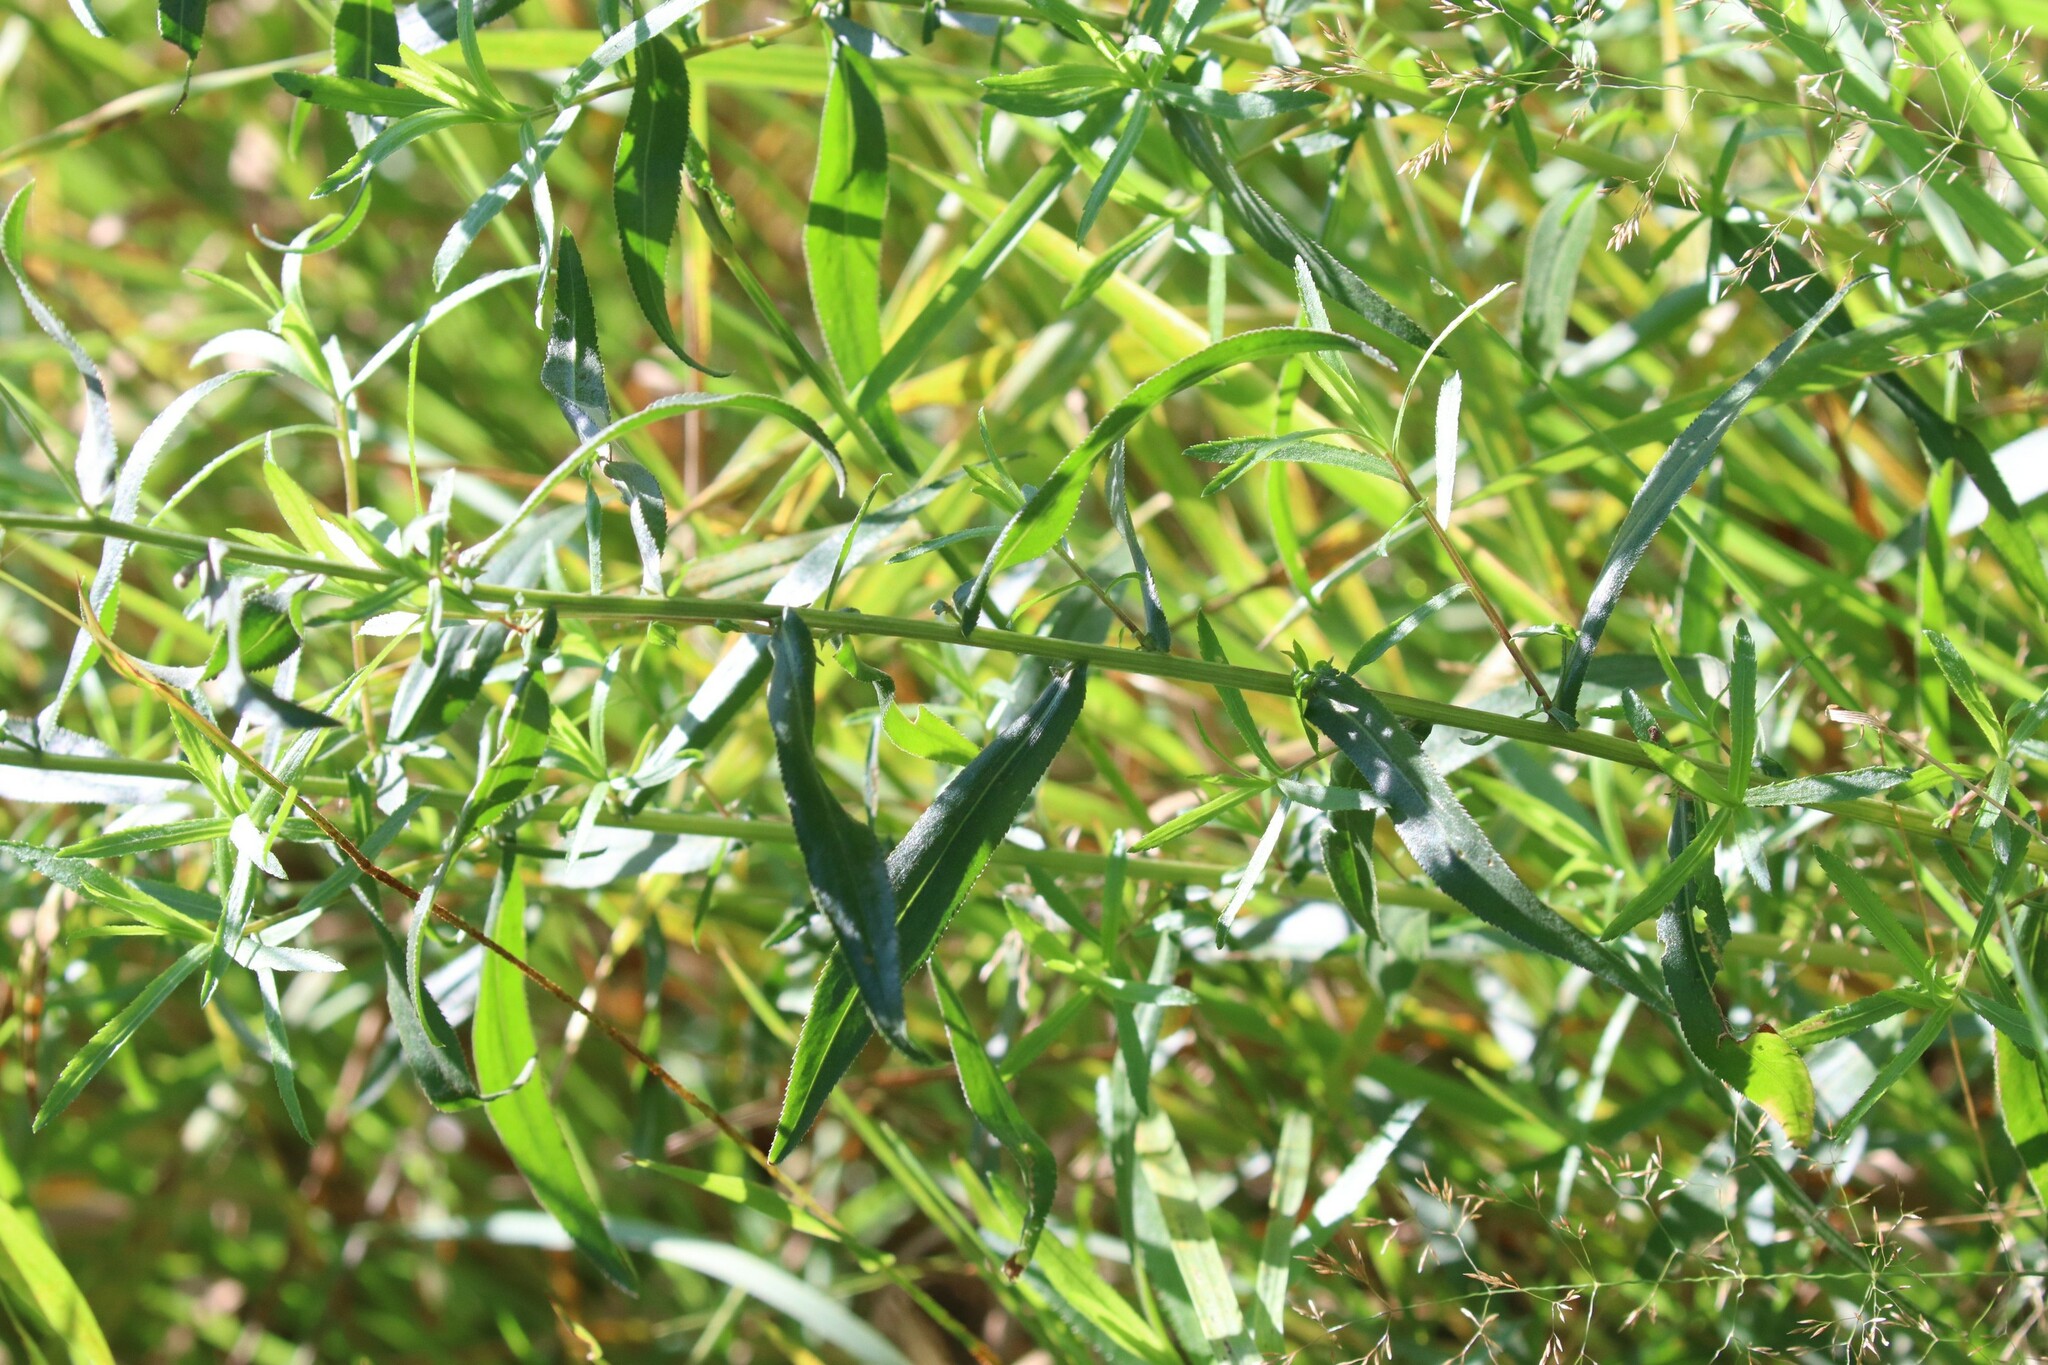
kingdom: Plantae
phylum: Tracheophyta
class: Magnoliopsida
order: Asterales
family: Asteraceae
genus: Achillea
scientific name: Achillea salicifolia
